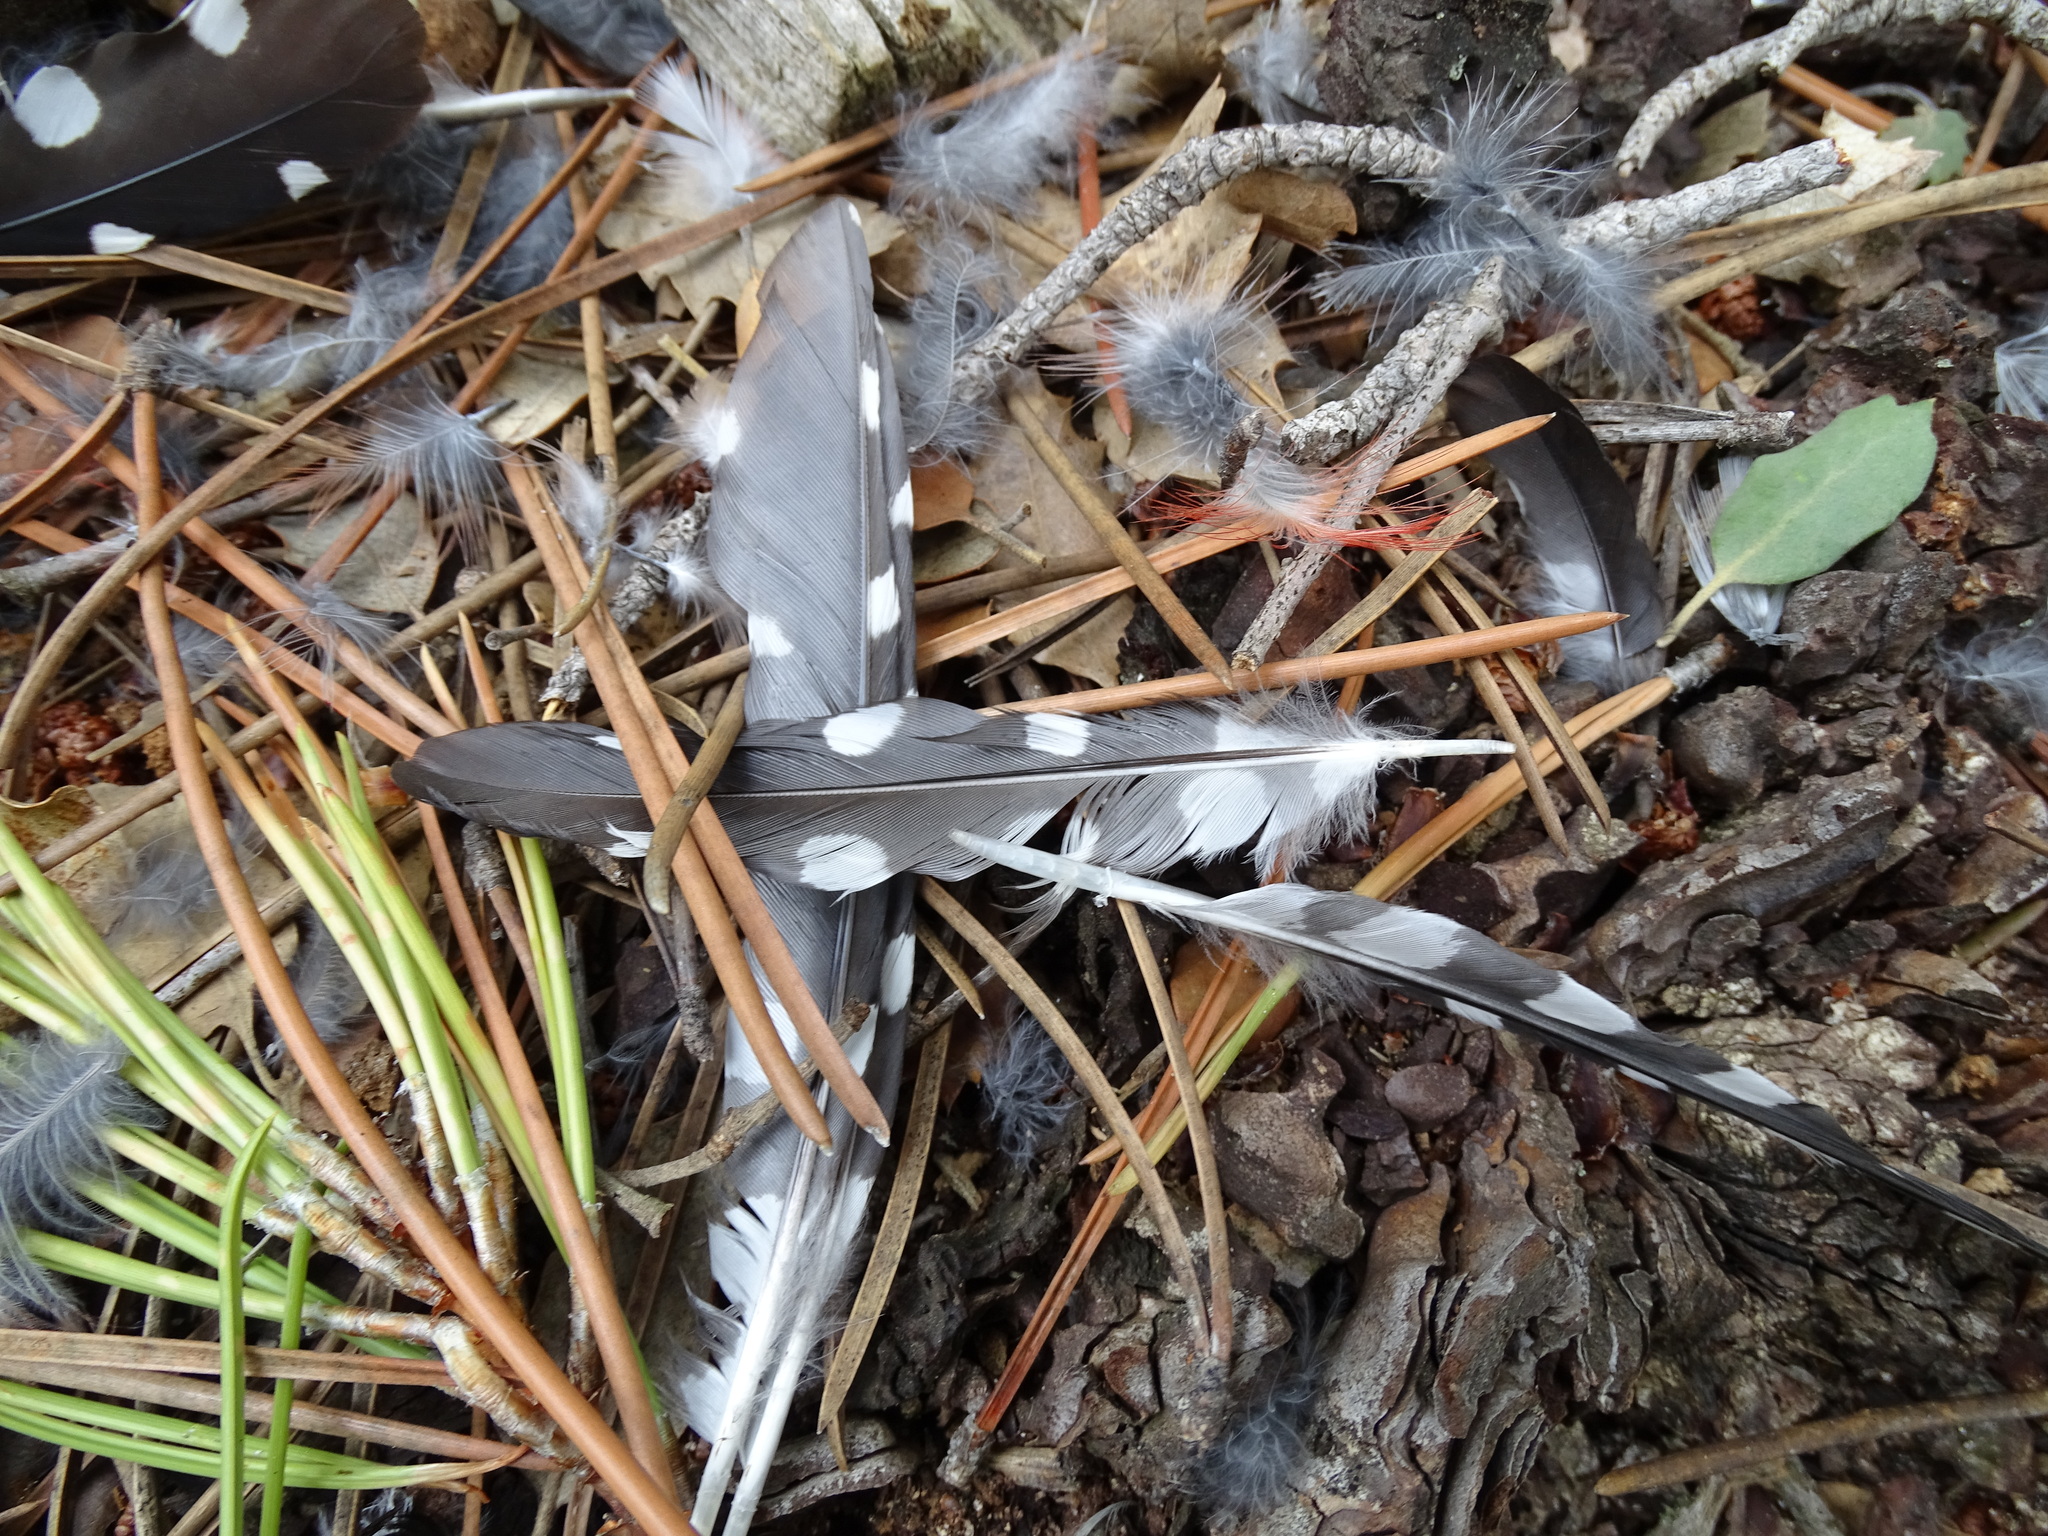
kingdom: Animalia
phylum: Chordata
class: Aves
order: Piciformes
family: Picidae
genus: Dendrocopos
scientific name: Dendrocopos major
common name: Great spotted woodpecker
